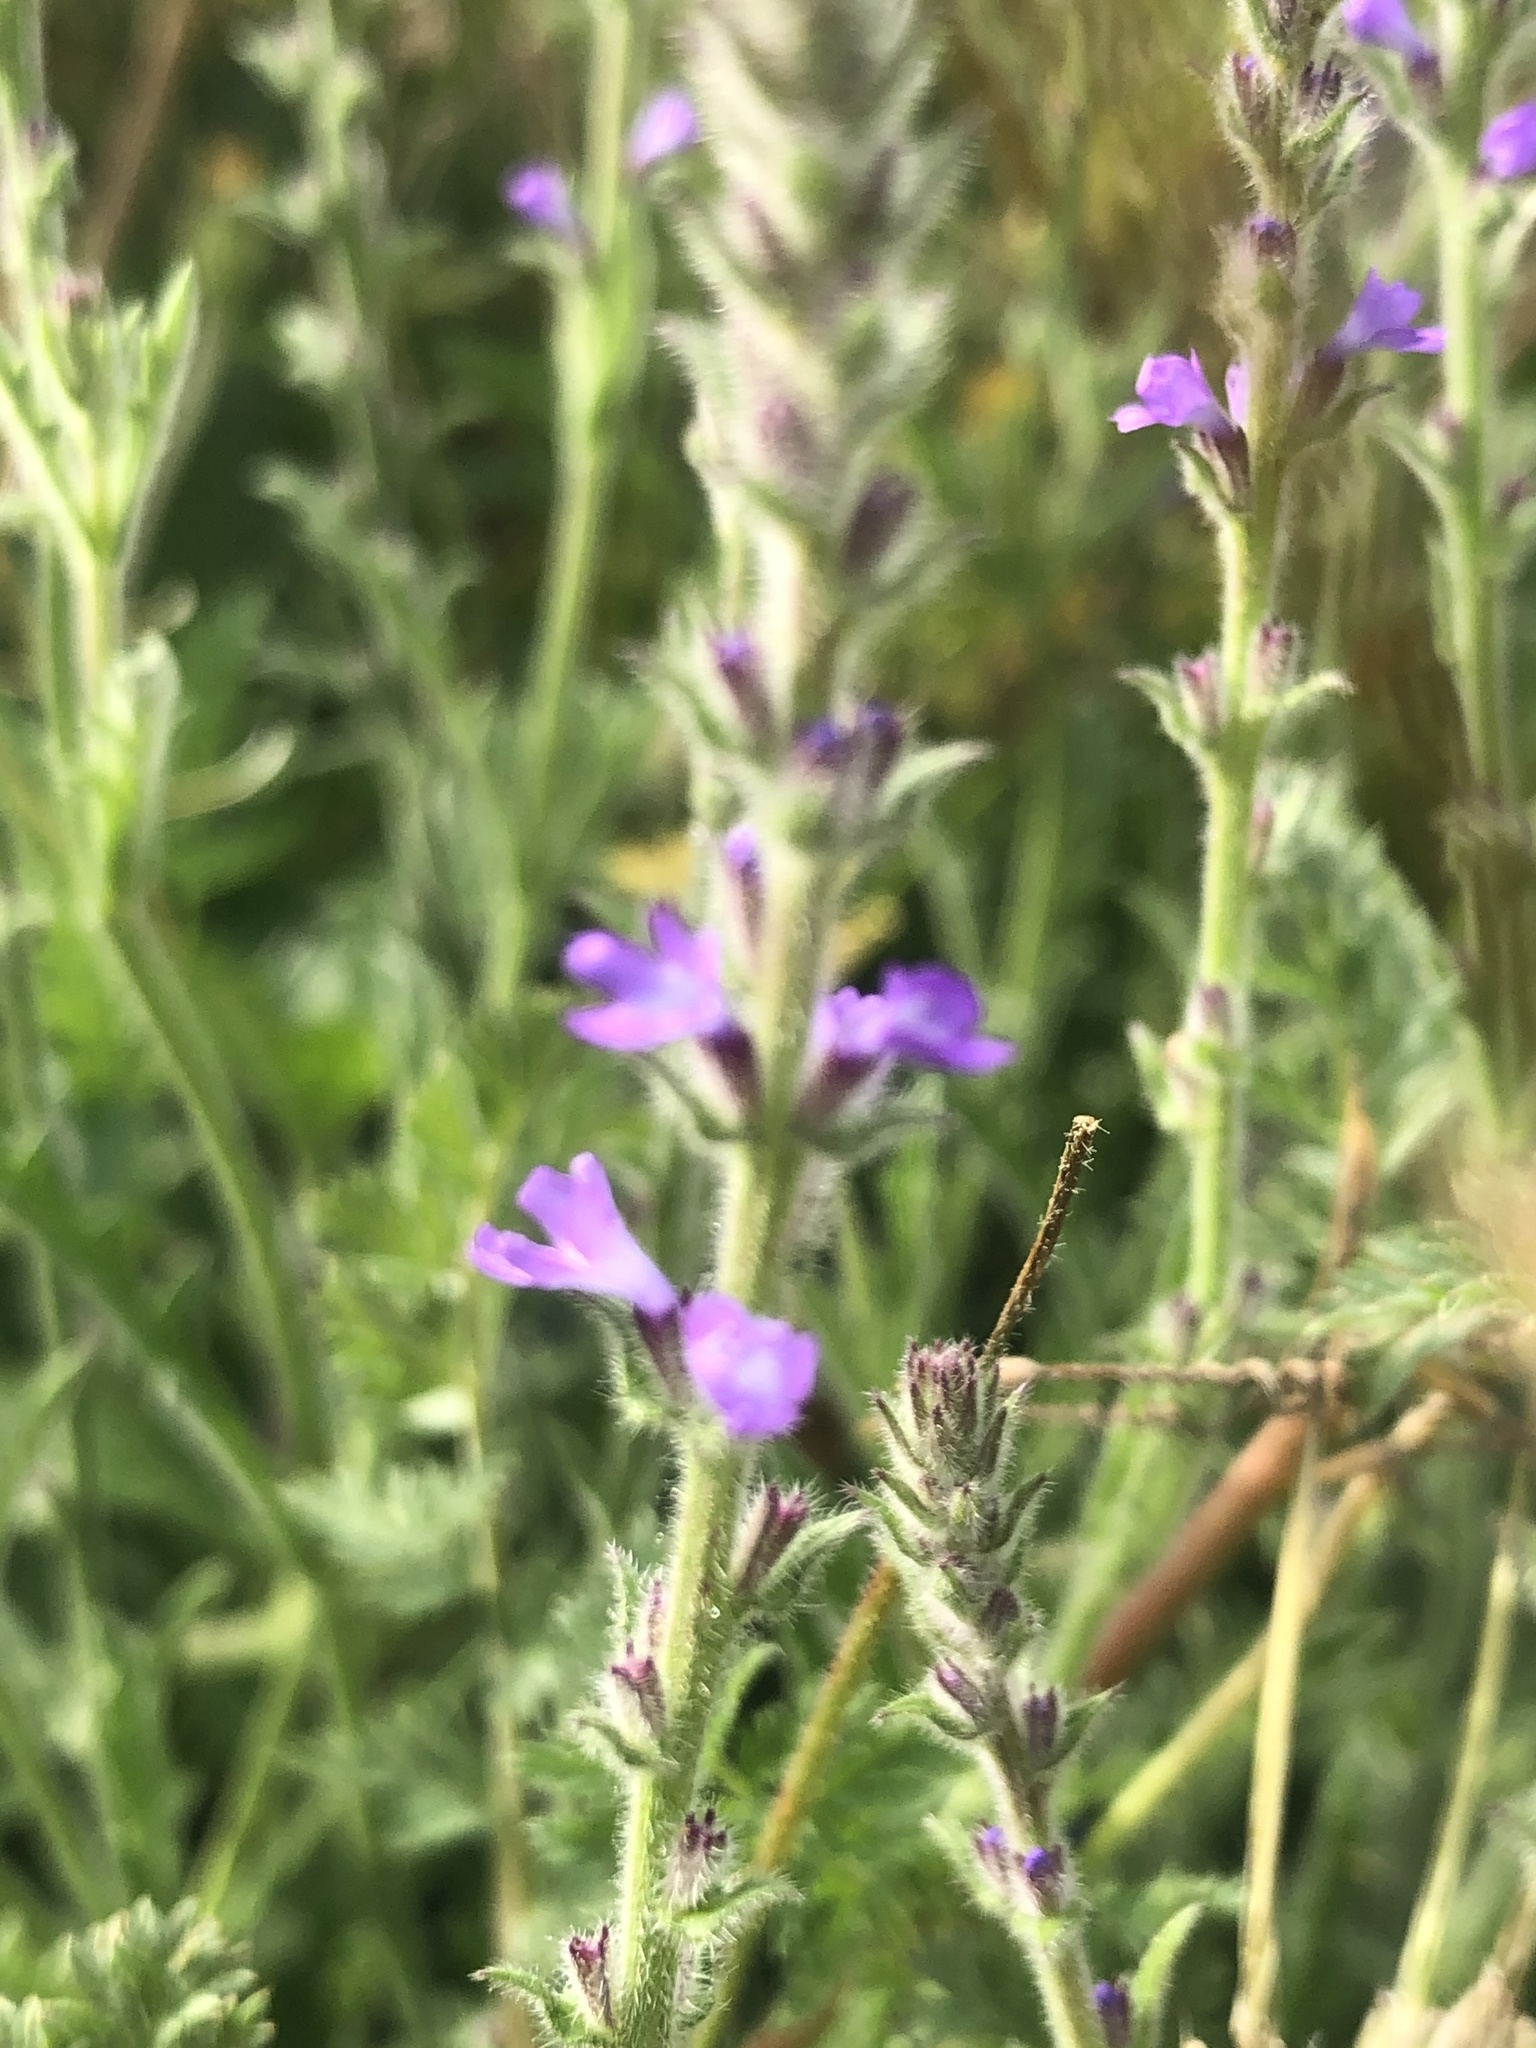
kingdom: Plantae
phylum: Tracheophyta
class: Magnoliopsida
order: Lamiales
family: Verbenaceae
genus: Verbena
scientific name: Verbena canescens
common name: Gray vervain
